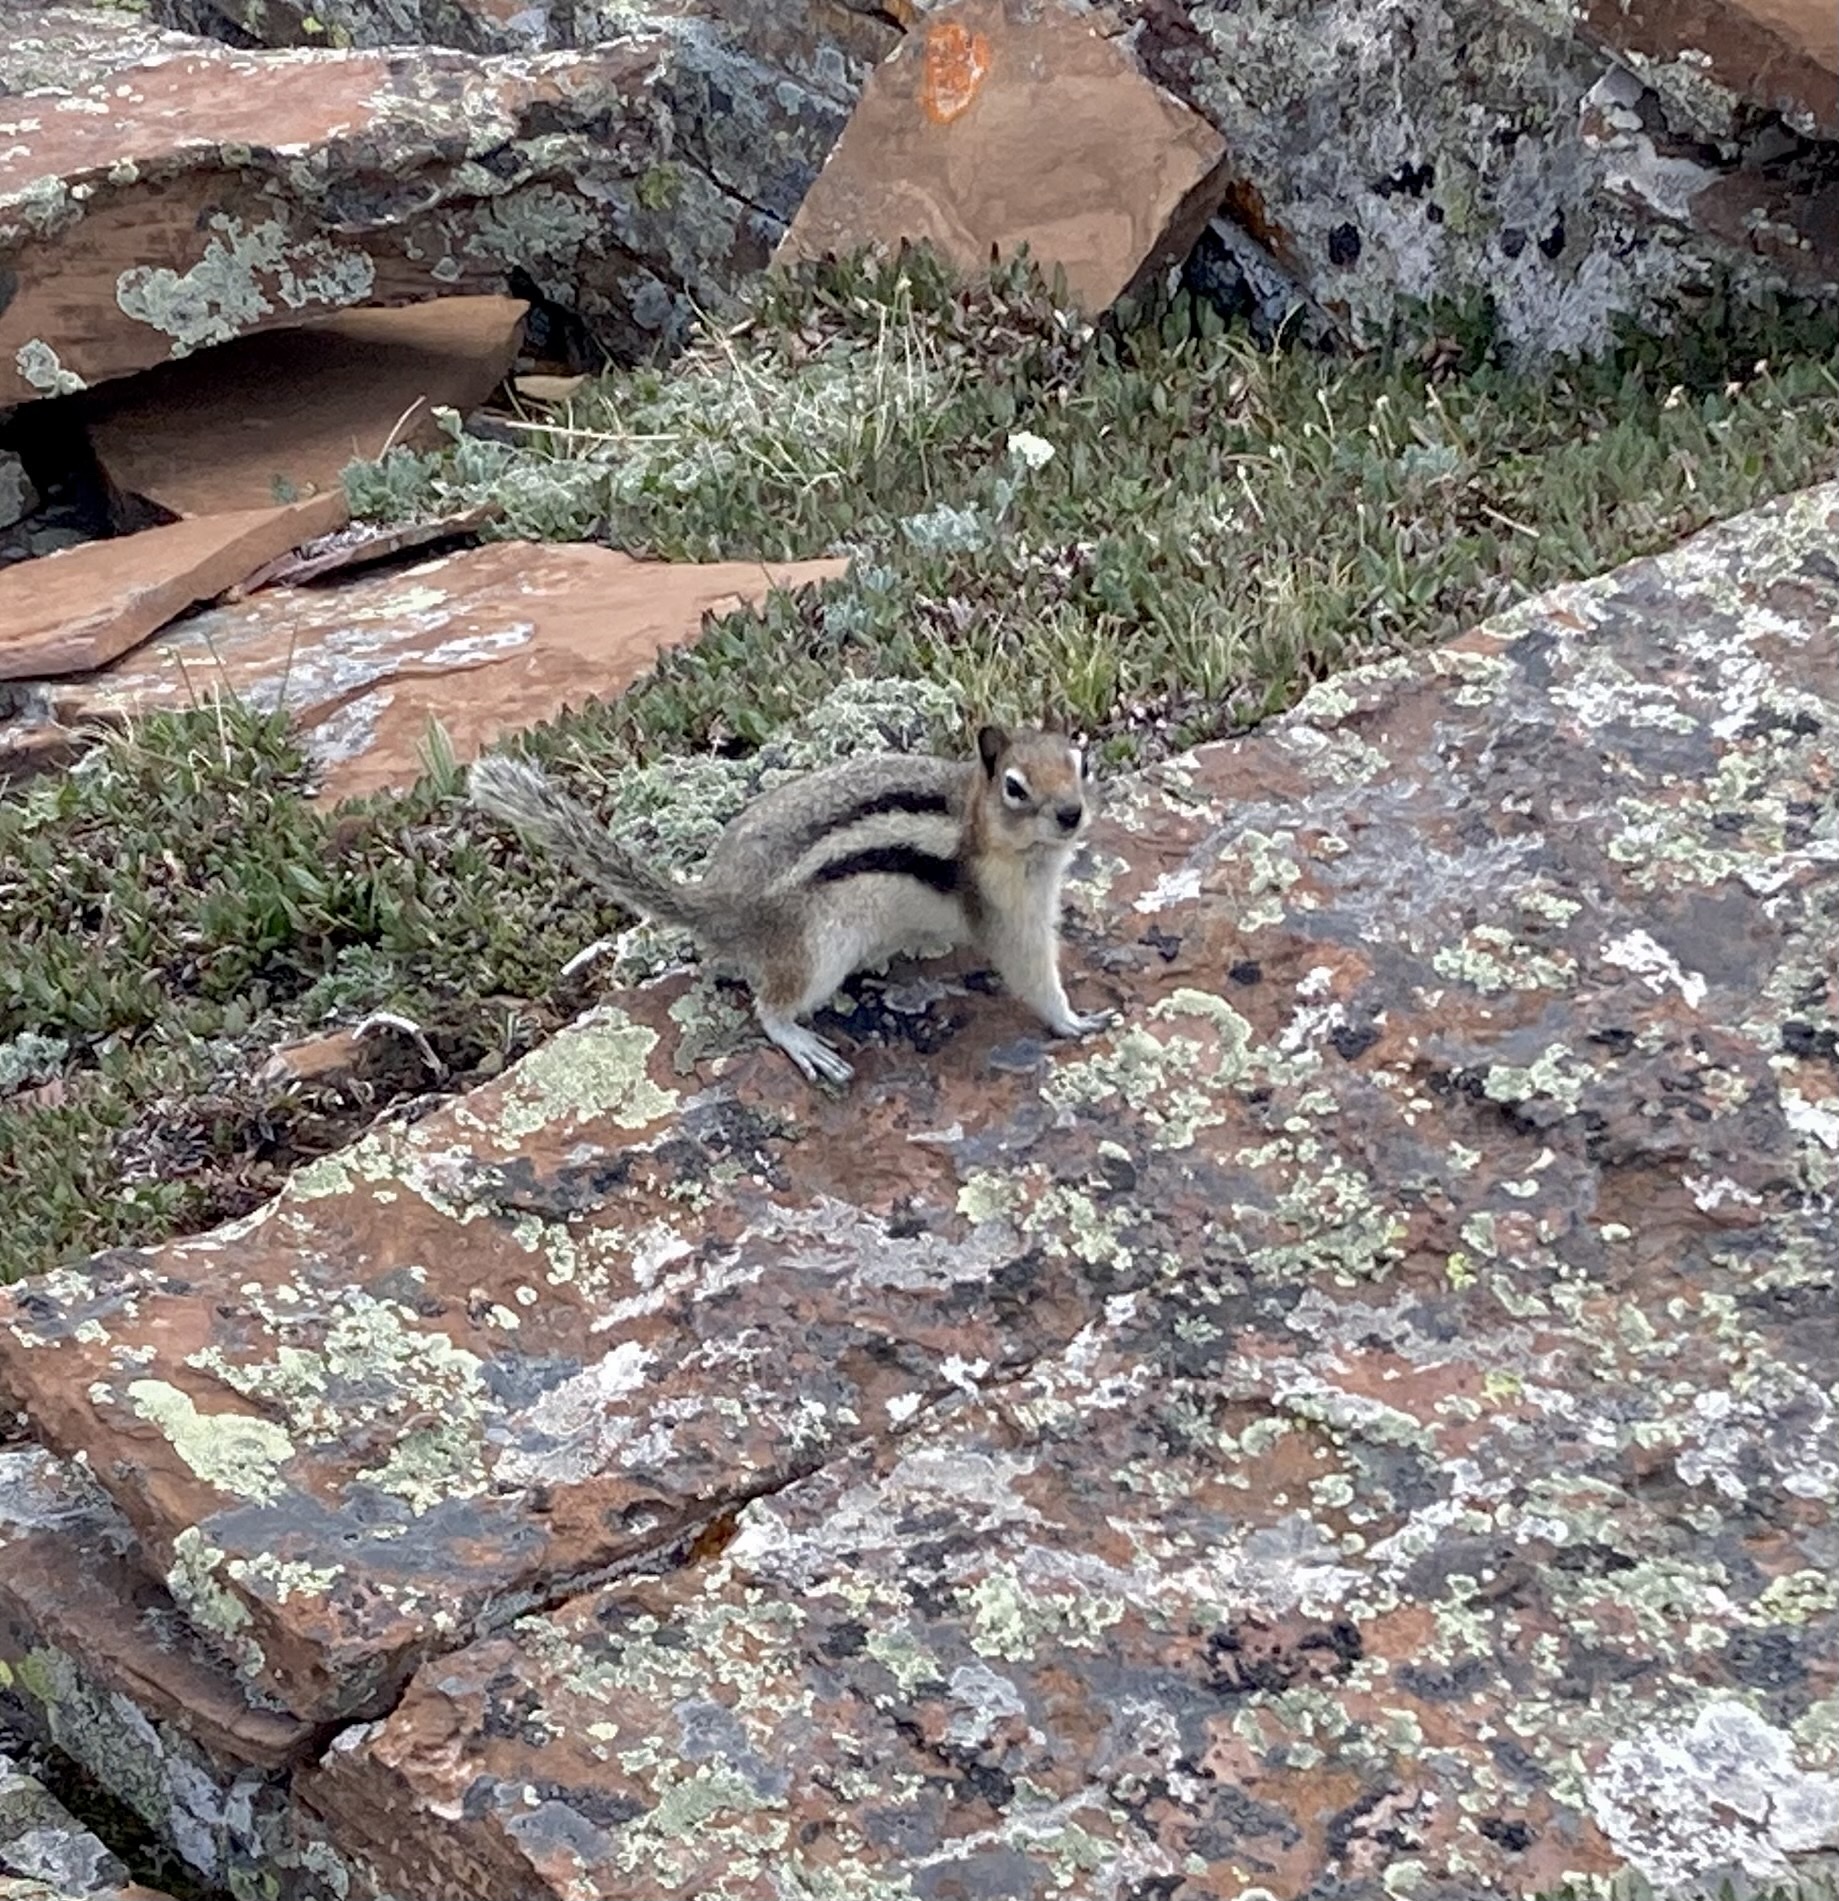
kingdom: Animalia
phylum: Chordata
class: Mammalia
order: Rodentia
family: Sciuridae
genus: Callospermophilus
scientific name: Callospermophilus lateralis
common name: Golden-mantled ground squirrel
